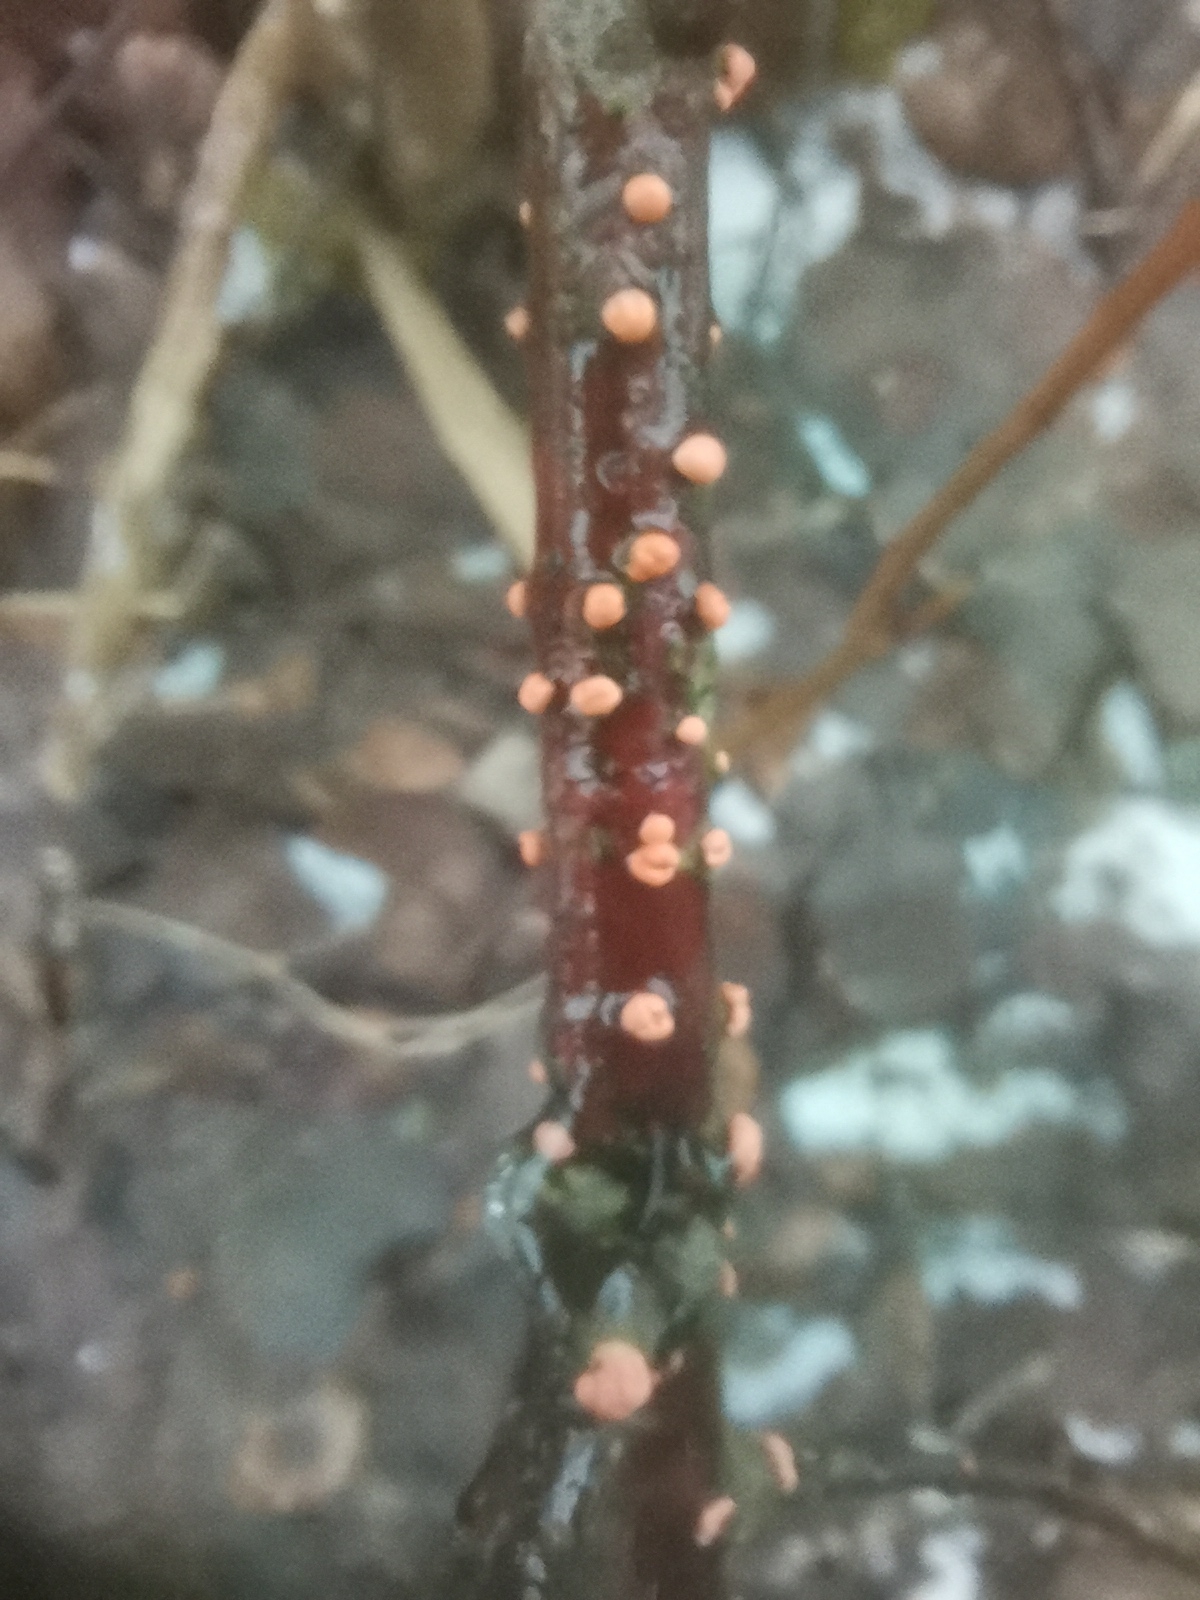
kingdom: Fungi
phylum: Ascomycota
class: Sordariomycetes
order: Hypocreales
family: Nectriaceae
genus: Nectria
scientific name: Nectria cinnabarina
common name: Coral spot
